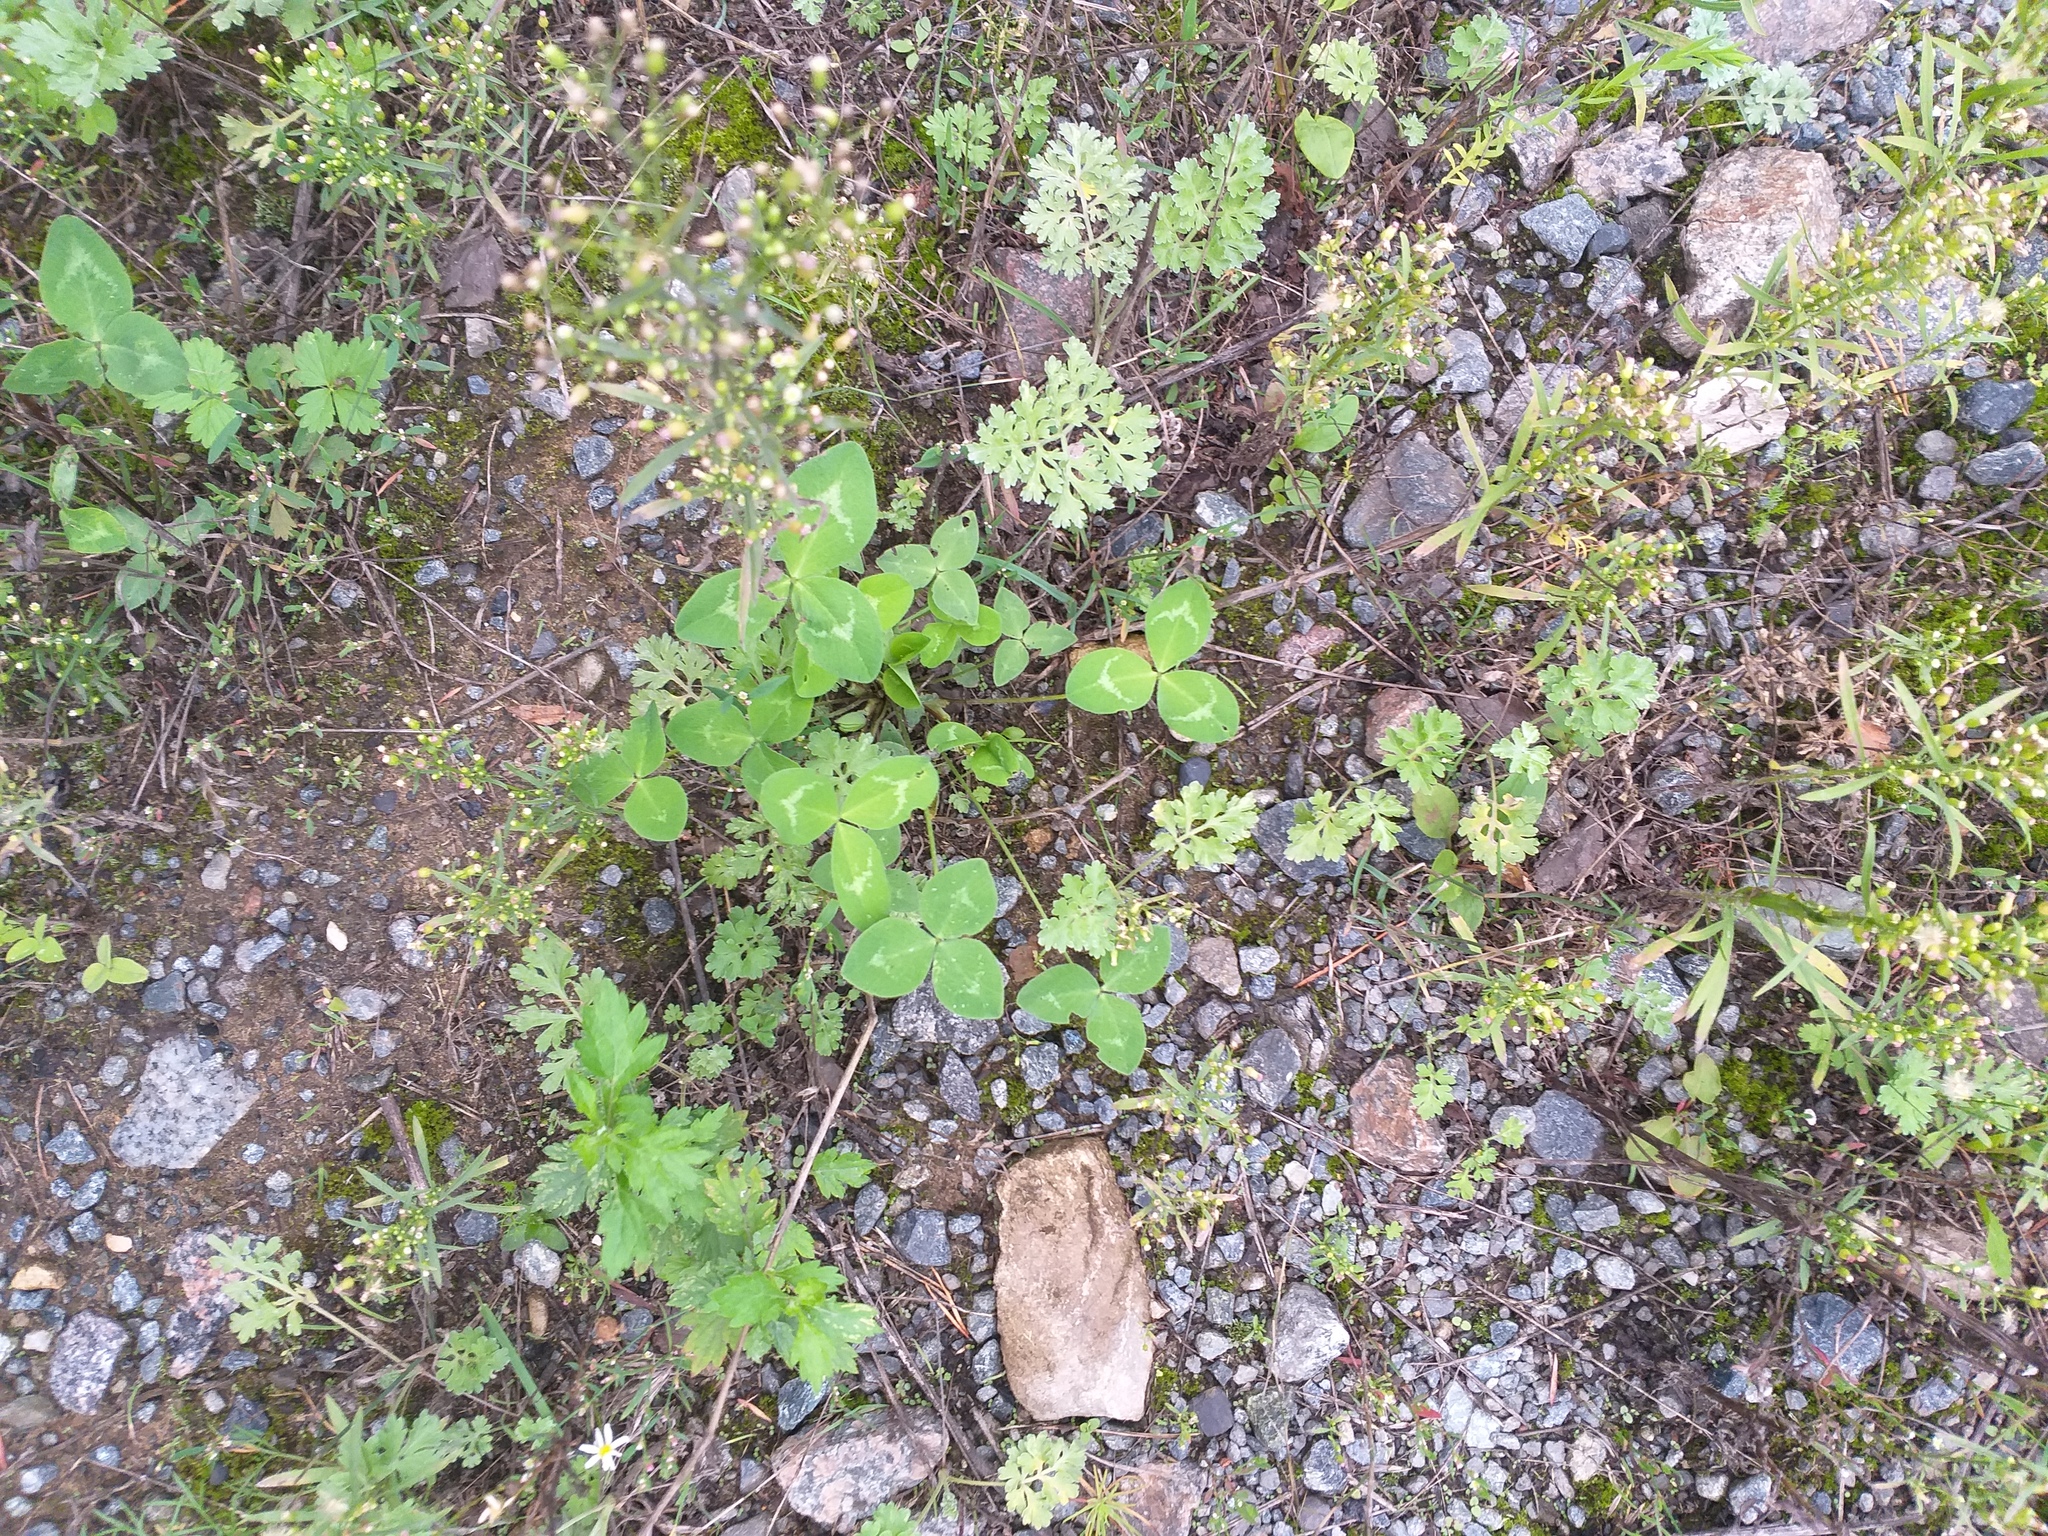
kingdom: Plantae
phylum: Tracheophyta
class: Magnoliopsida
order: Fabales
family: Fabaceae
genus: Trifolium
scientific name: Trifolium pratense
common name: Red clover
